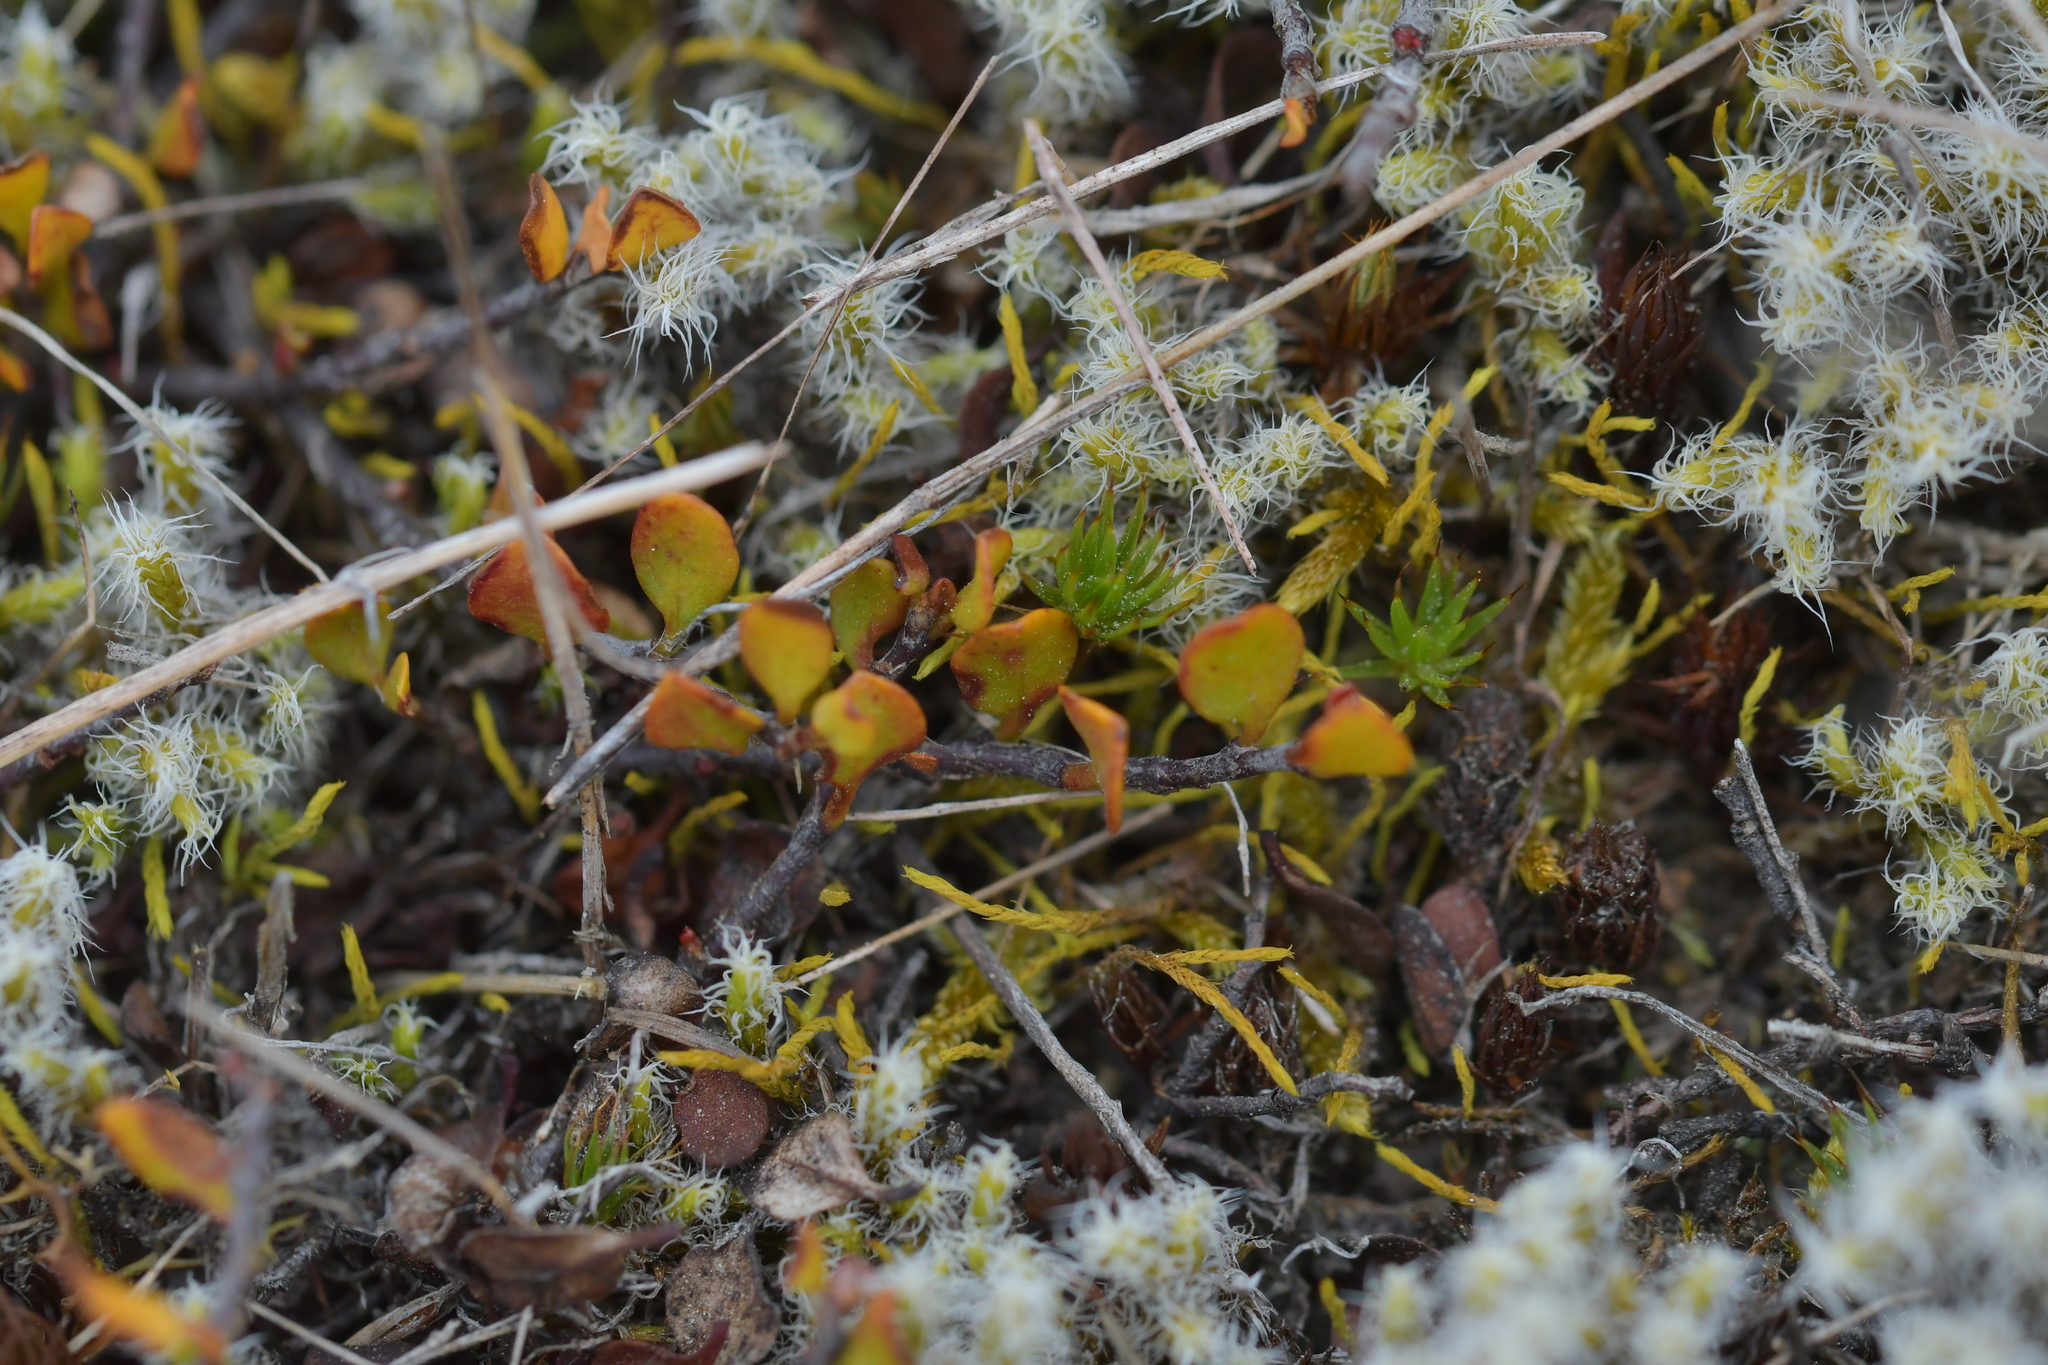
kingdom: Plantae
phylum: Tracheophyta
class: Magnoliopsida
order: Caryophyllales
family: Polygonaceae
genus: Muehlenbeckia
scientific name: Muehlenbeckia axillaris
